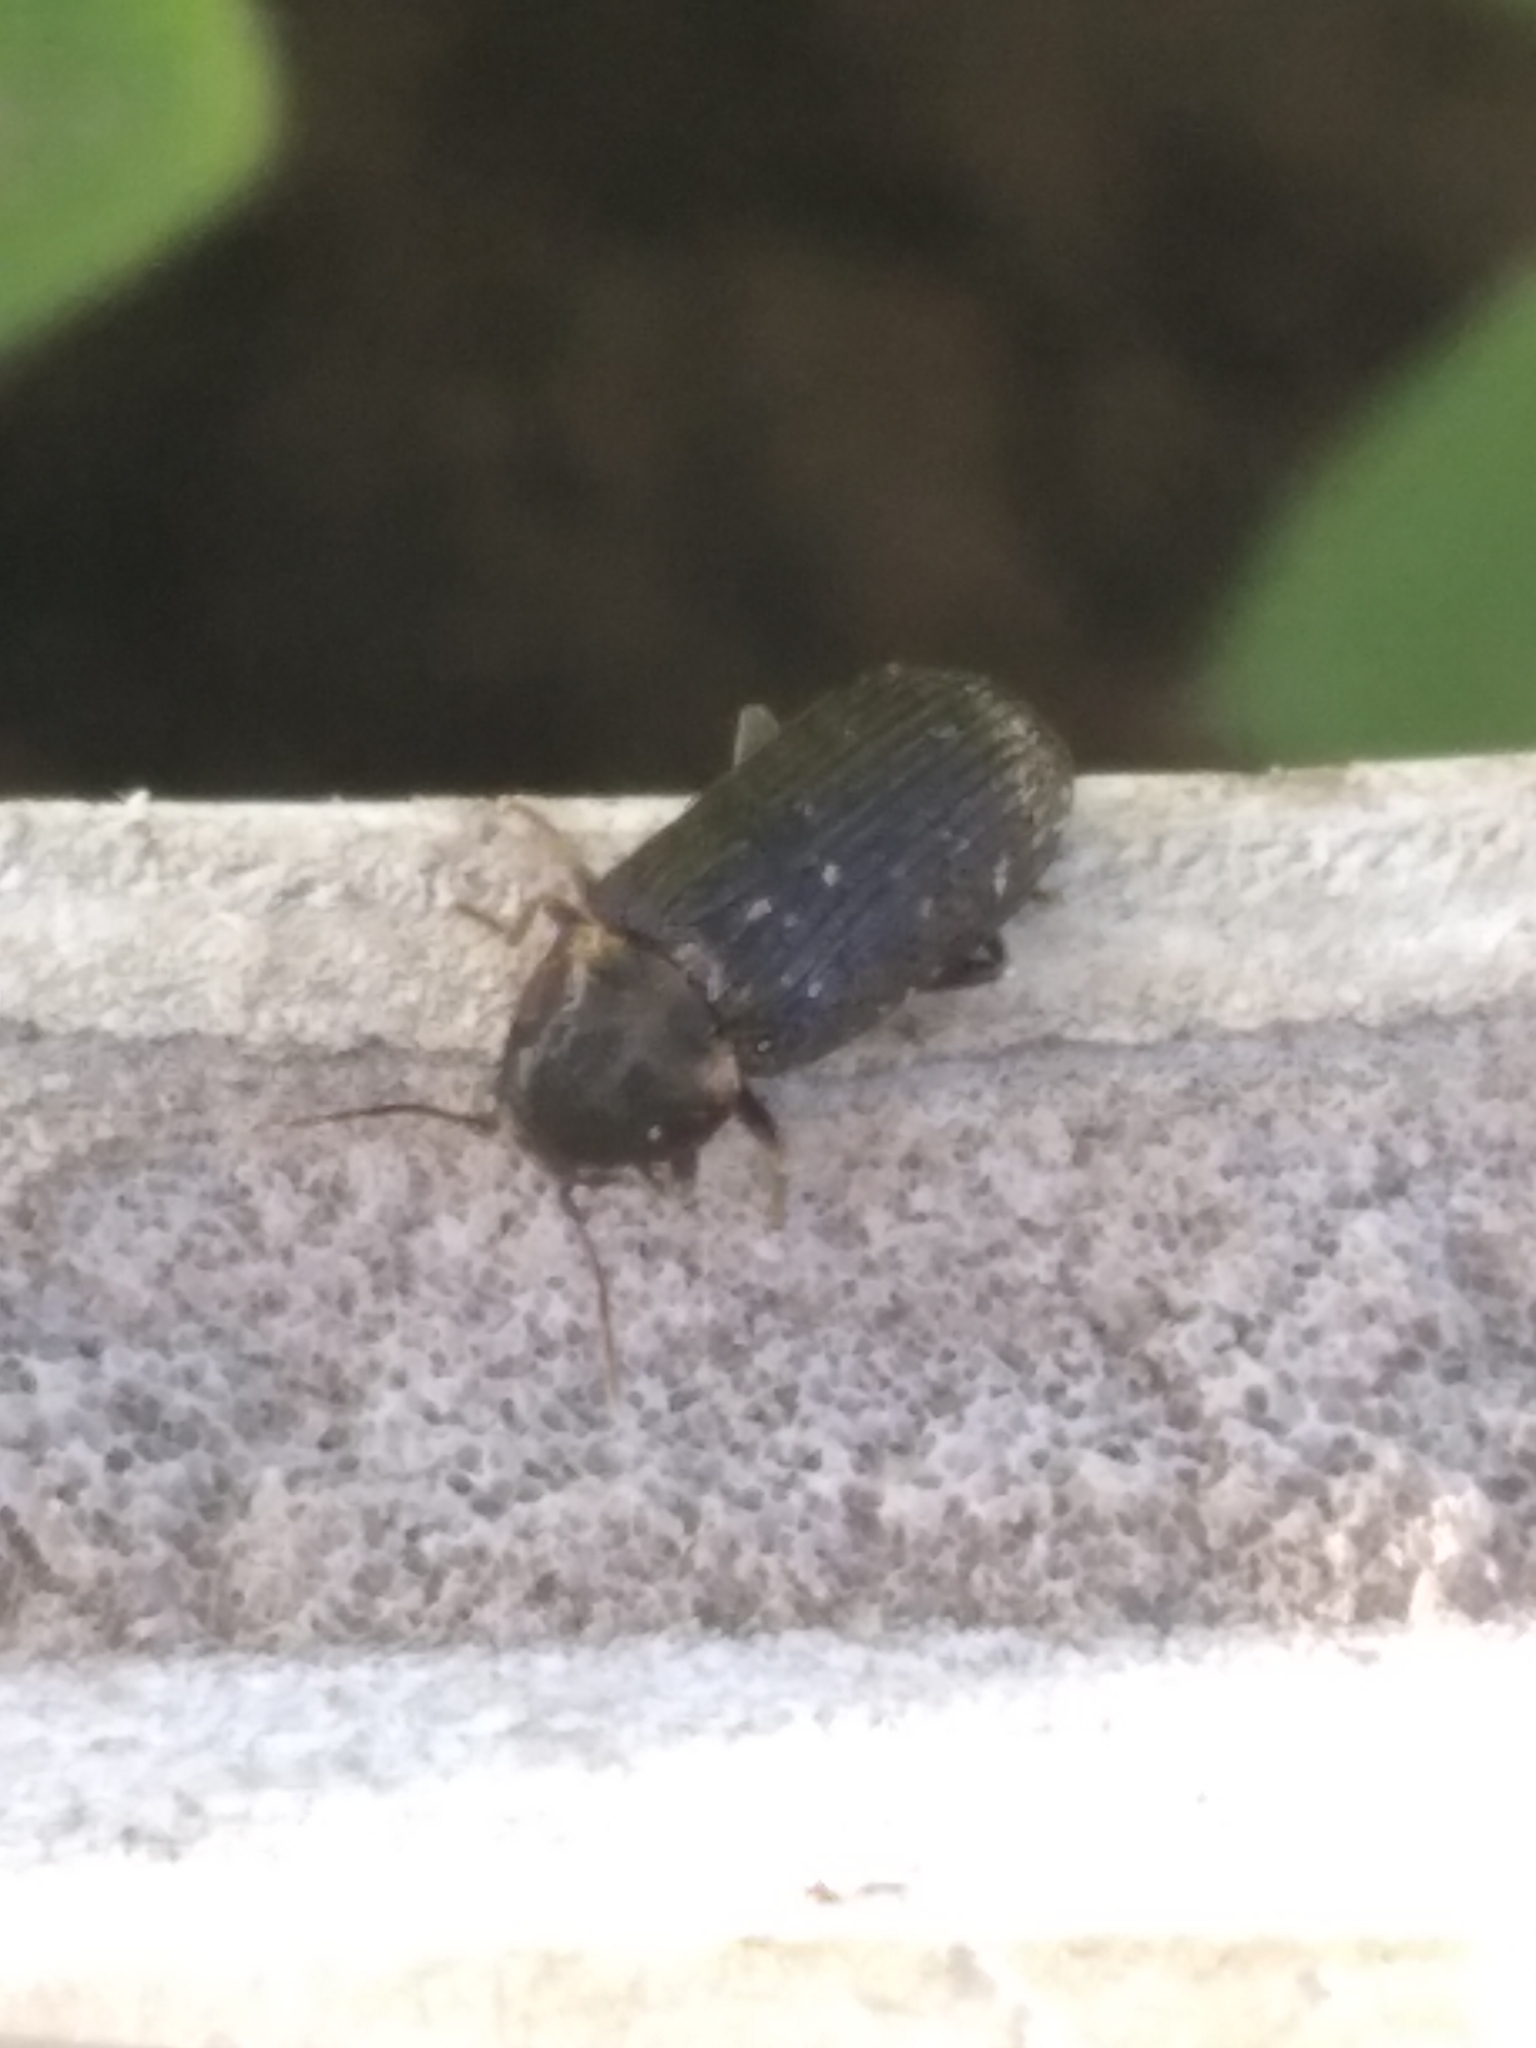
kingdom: Animalia
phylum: Arthropoda
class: Insecta
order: Coleoptera
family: Anobiidae
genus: Hadrobregmus
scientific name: Hadrobregmus pertinax
